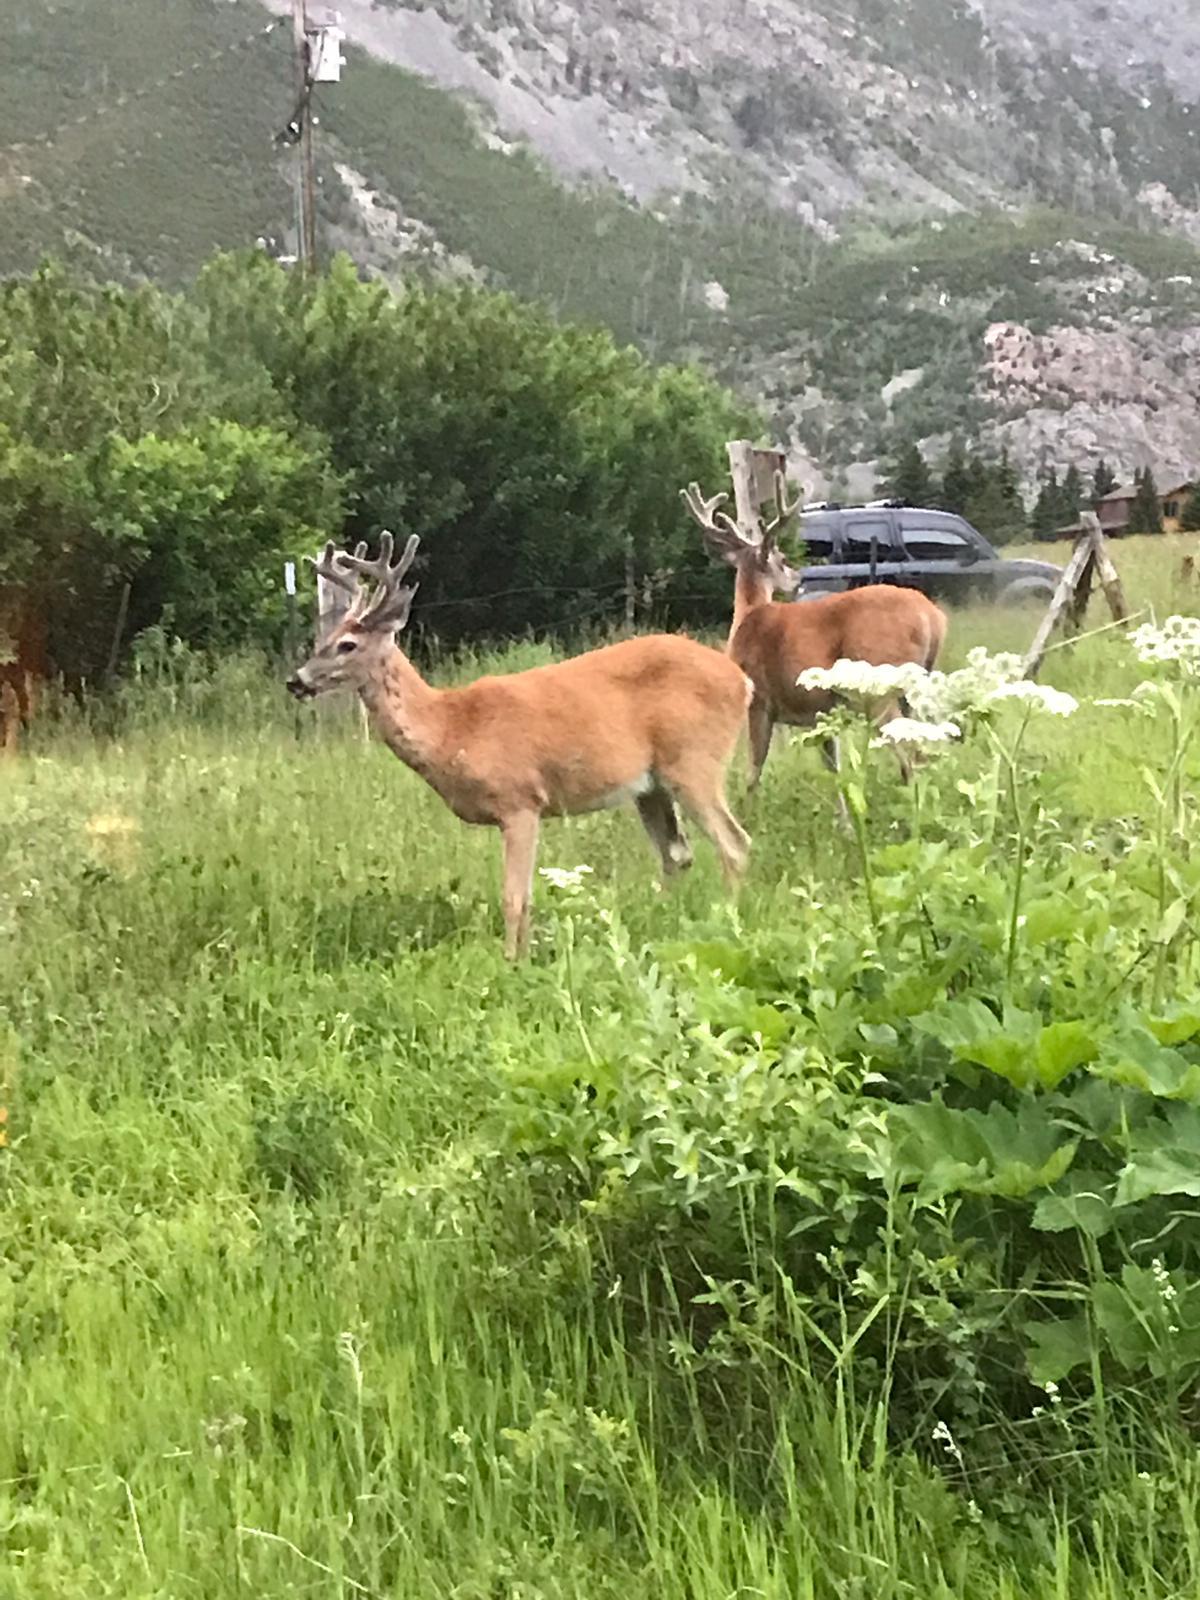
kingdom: Animalia
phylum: Chordata
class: Mammalia
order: Artiodactyla
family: Cervidae
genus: Odocoileus
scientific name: Odocoileus virginianus
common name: White-tailed deer
